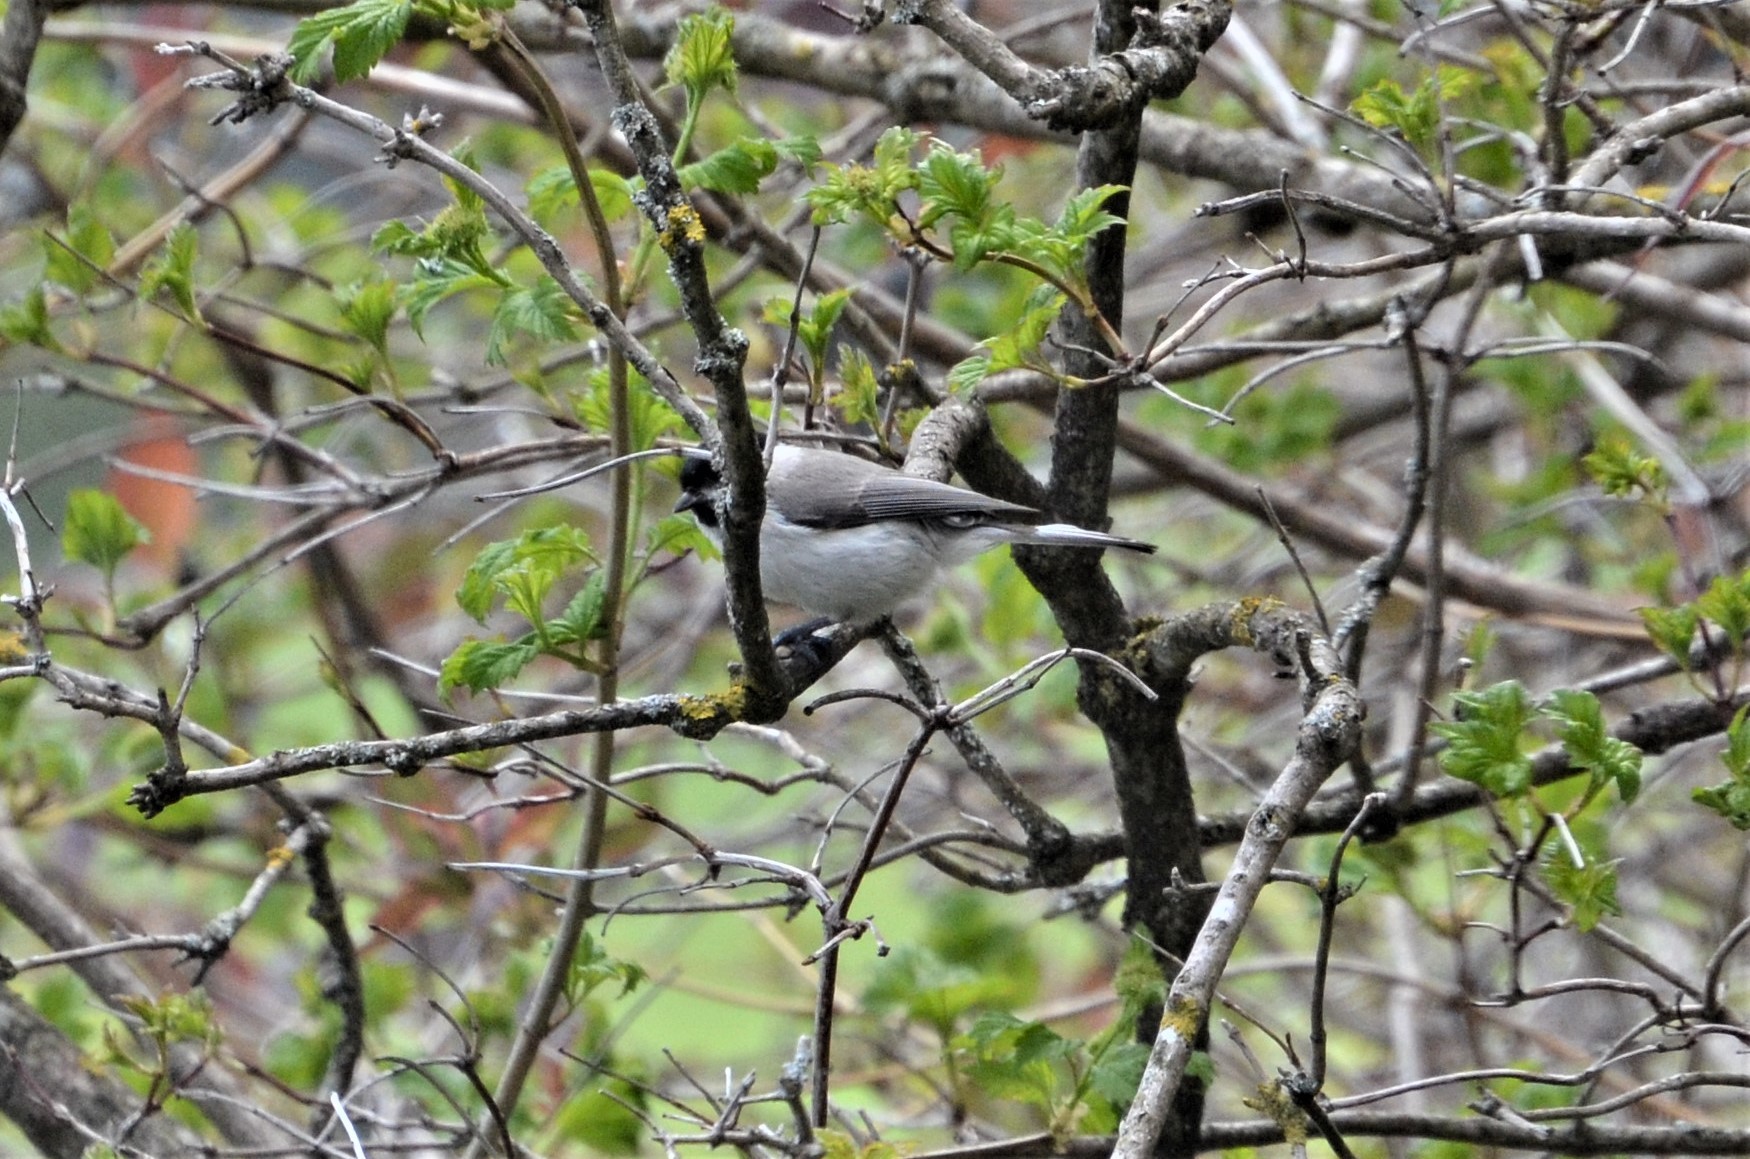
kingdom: Animalia
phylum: Chordata
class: Aves
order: Passeriformes
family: Paridae
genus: Poecile
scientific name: Poecile palustris
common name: Marsh tit
